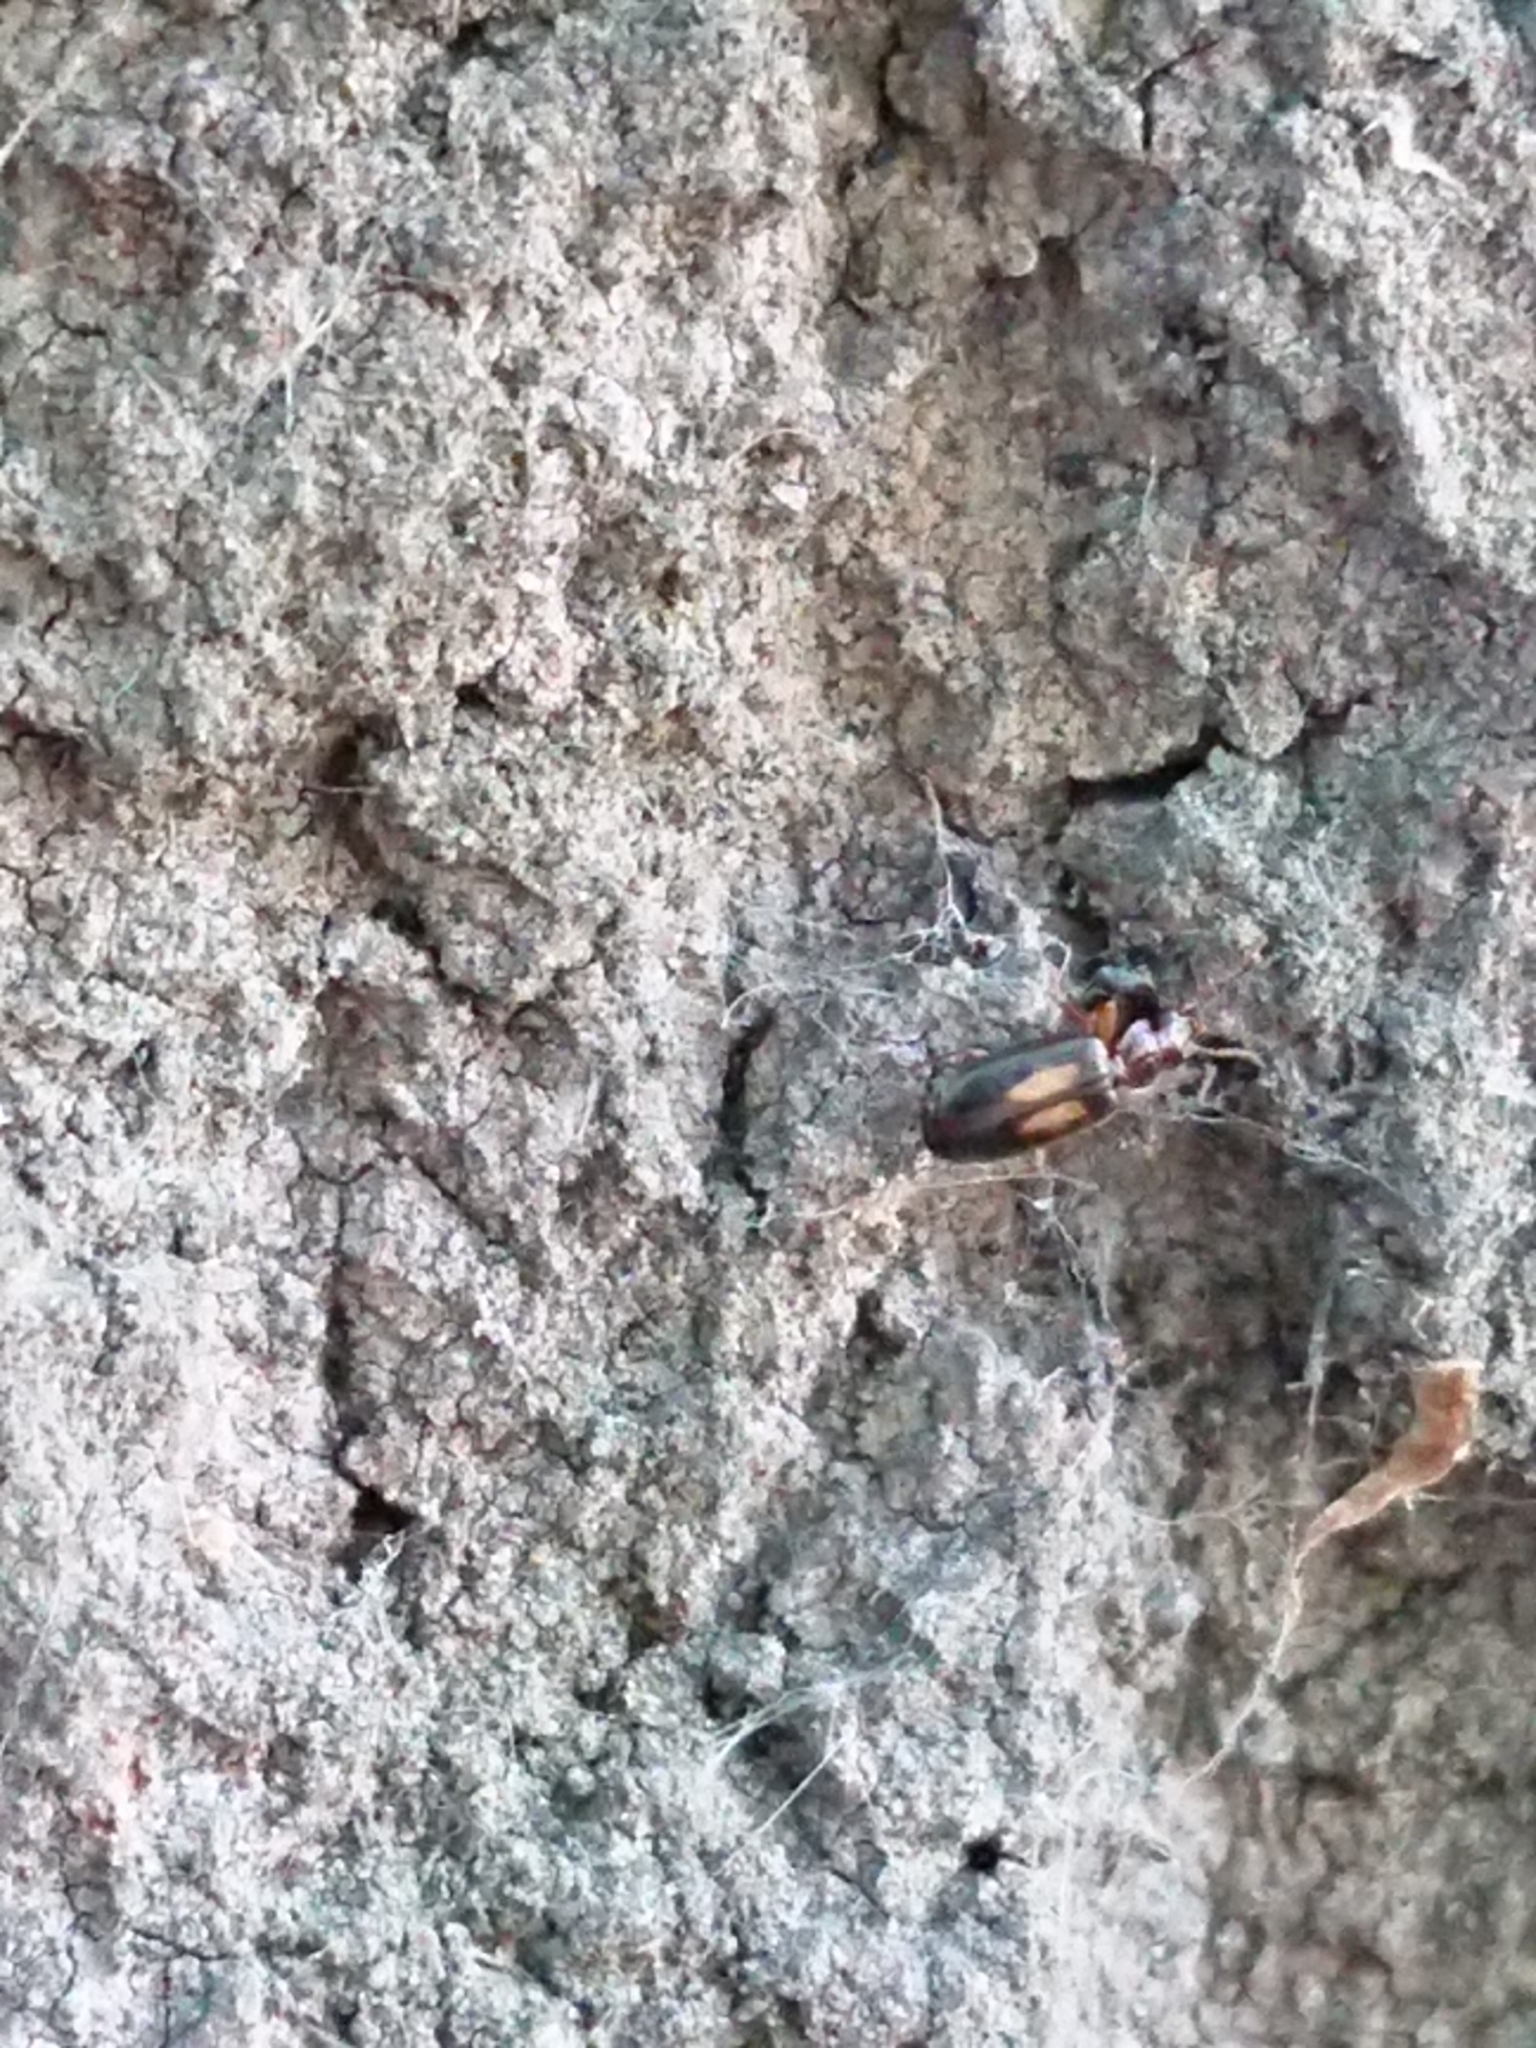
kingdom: Animalia
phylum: Arthropoda
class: Insecta
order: Coleoptera
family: Carabidae
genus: Agonocheila
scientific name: Agonocheila antipodum
